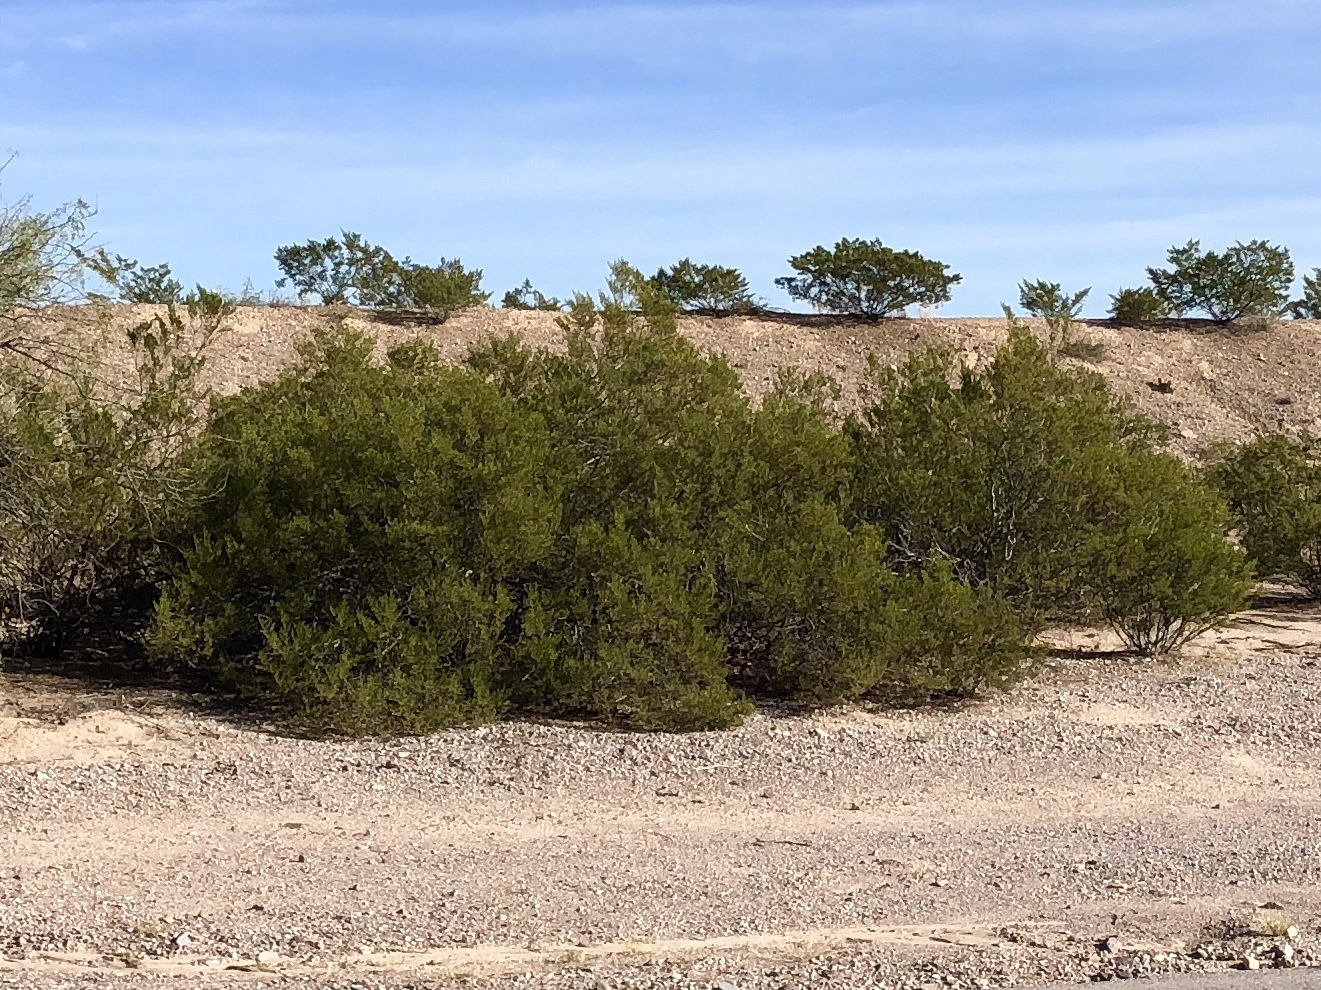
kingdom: Plantae
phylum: Tracheophyta
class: Magnoliopsida
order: Zygophyllales
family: Zygophyllaceae
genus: Larrea
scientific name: Larrea tridentata
